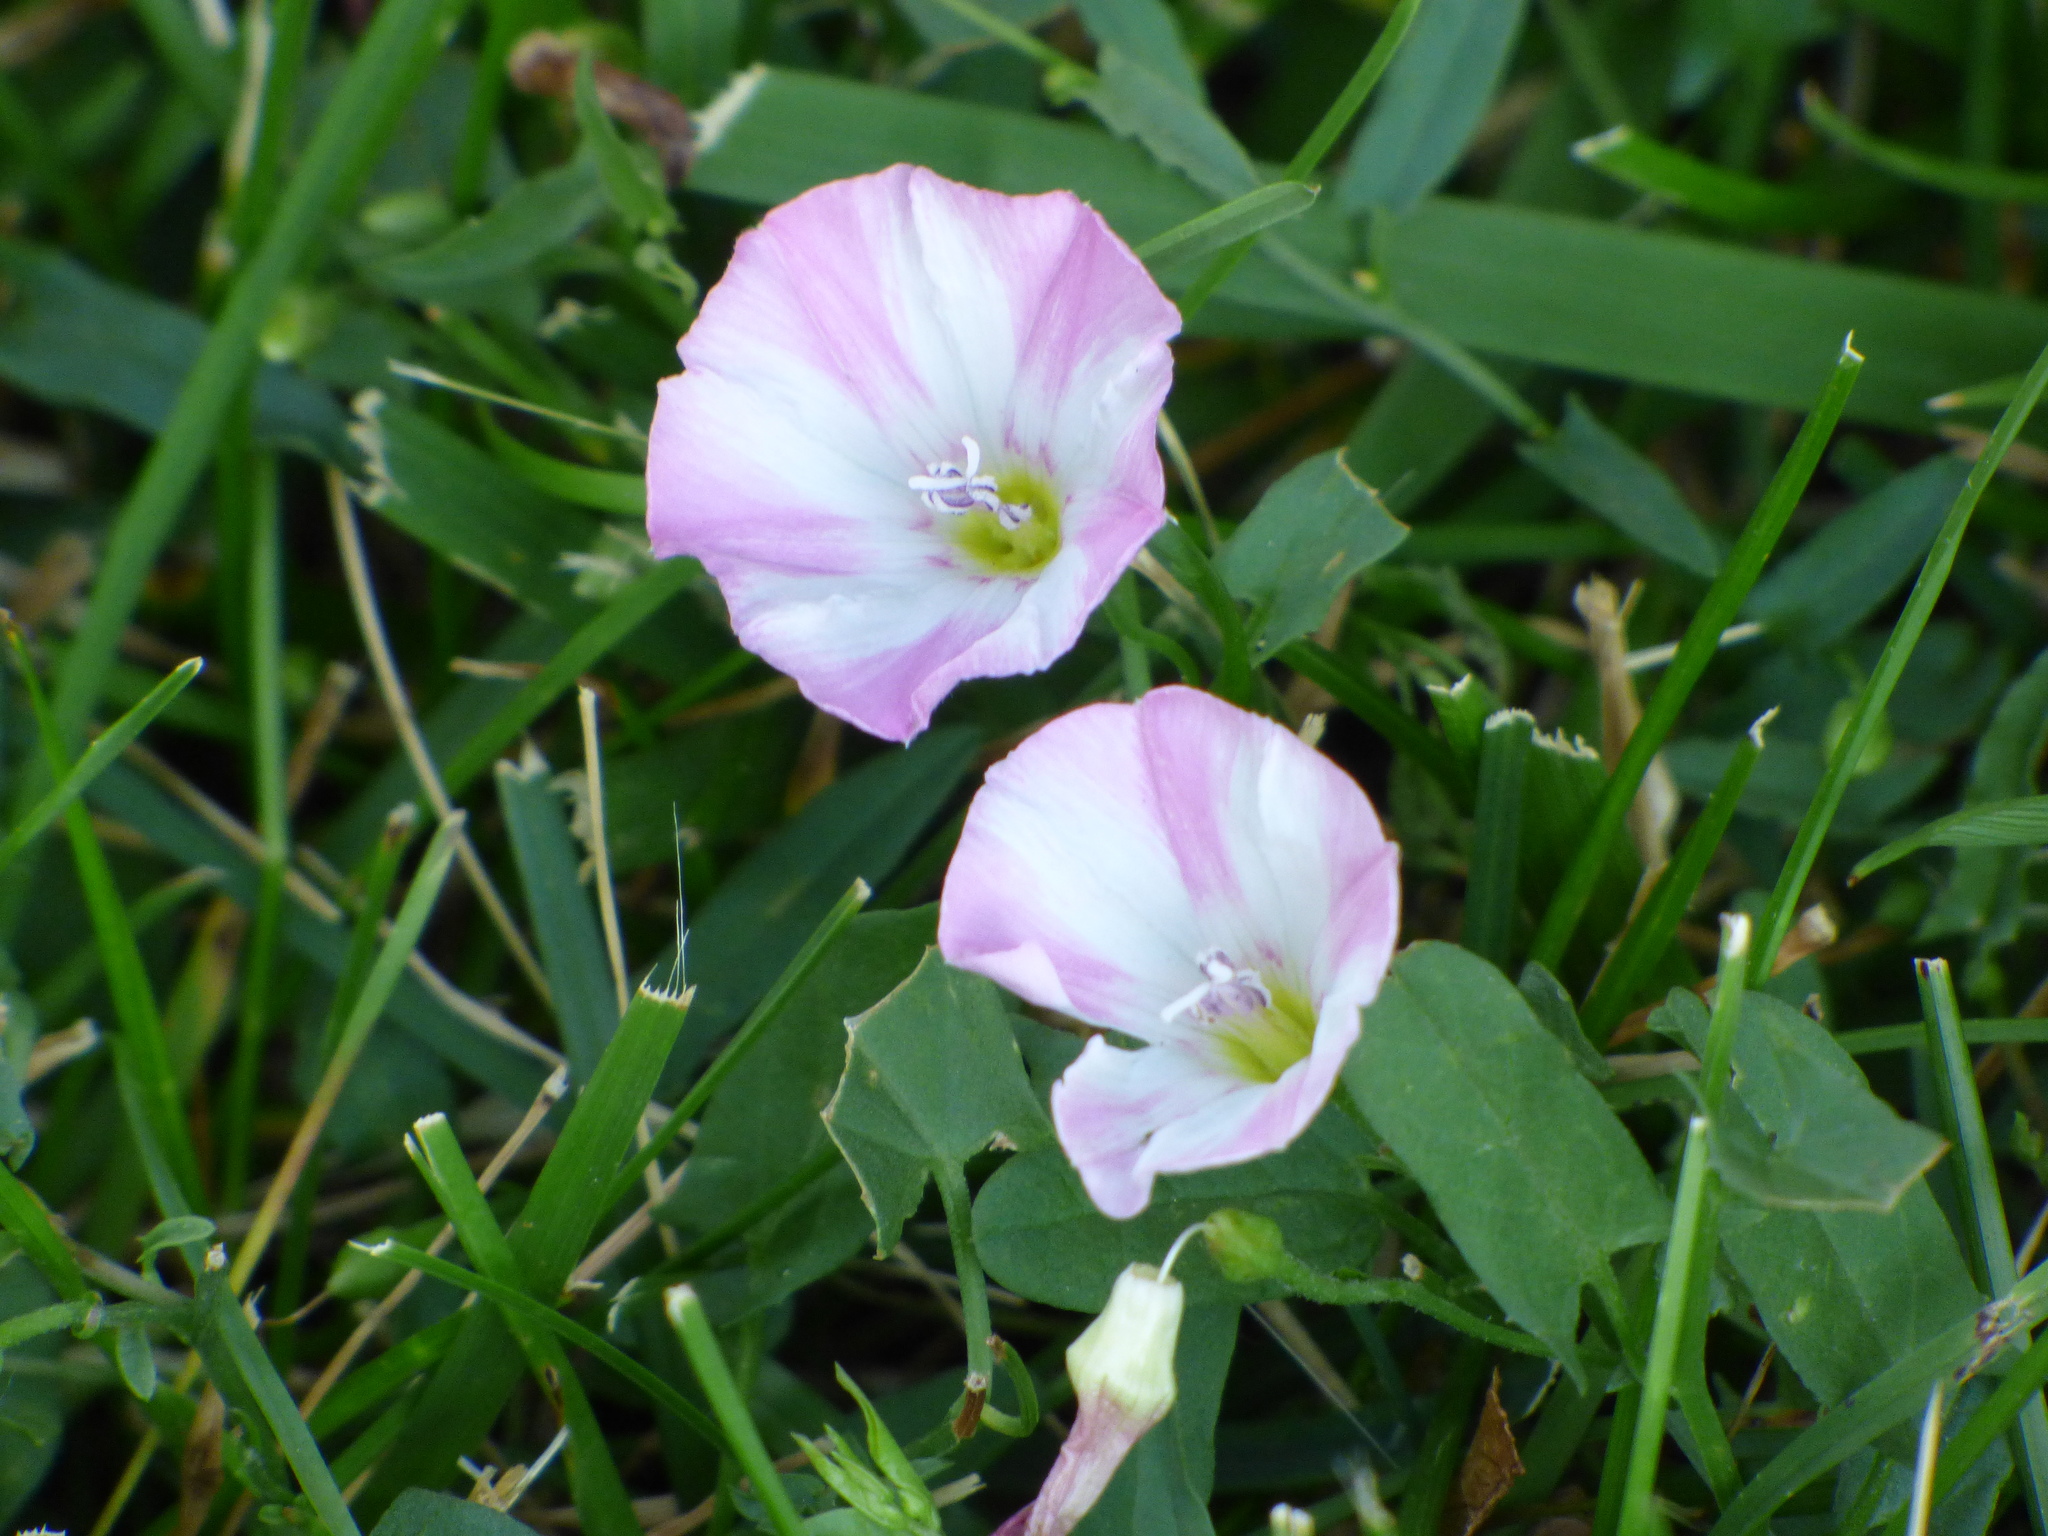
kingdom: Plantae
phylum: Tracheophyta
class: Magnoliopsida
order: Solanales
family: Convolvulaceae
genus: Convolvulus
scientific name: Convolvulus arvensis
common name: Field bindweed
